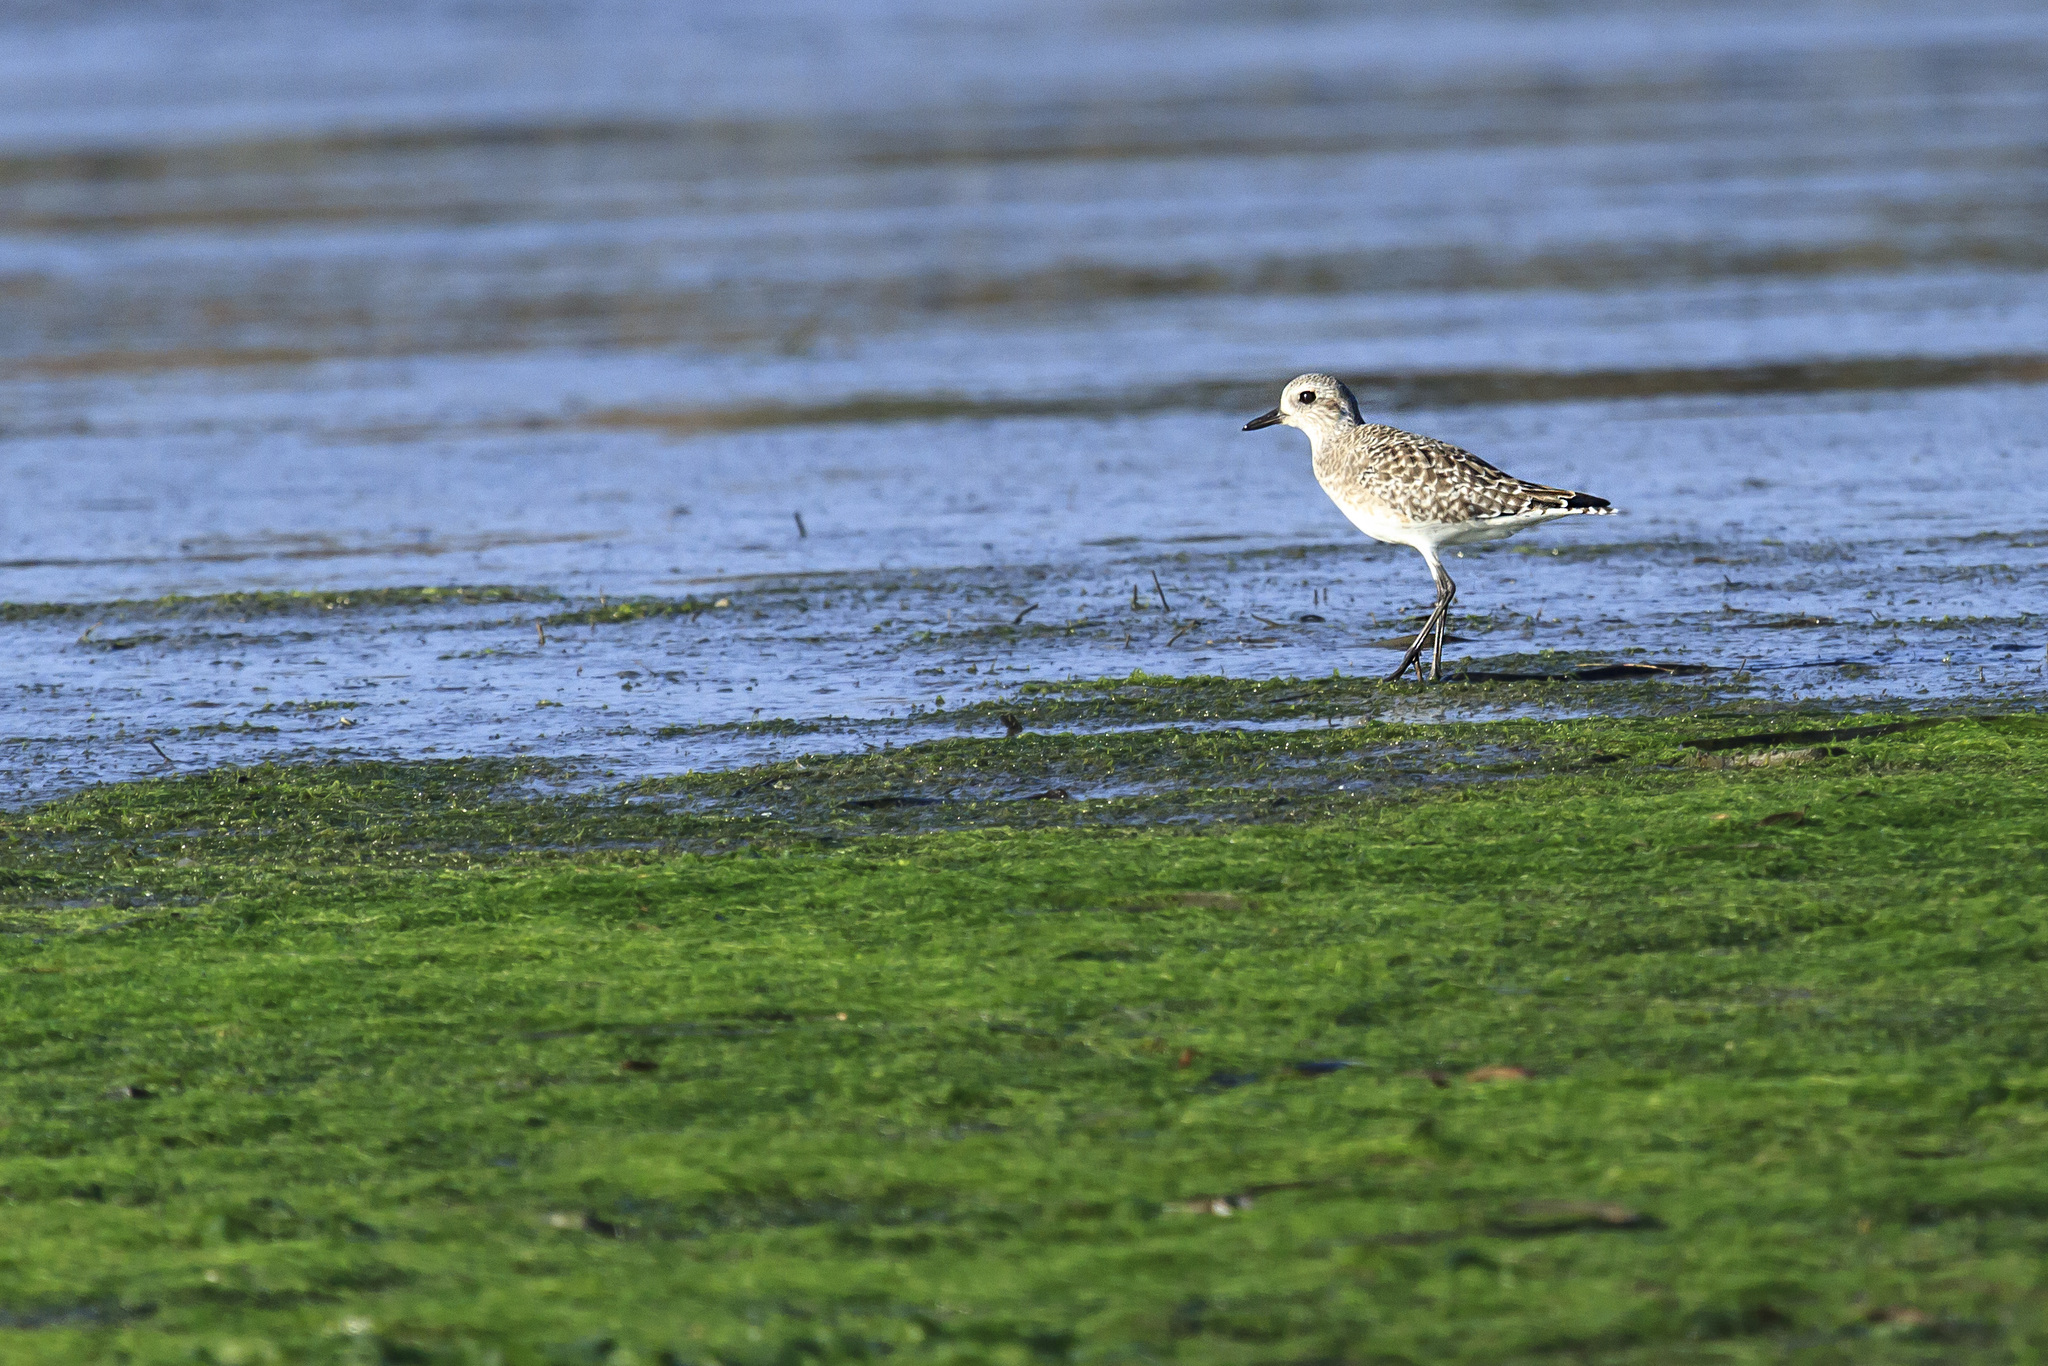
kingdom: Animalia
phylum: Chordata
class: Aves
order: Charadriiformes
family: Charadriidae
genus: Pluvialis
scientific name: Pluvialis squatarola
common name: Grey plover
